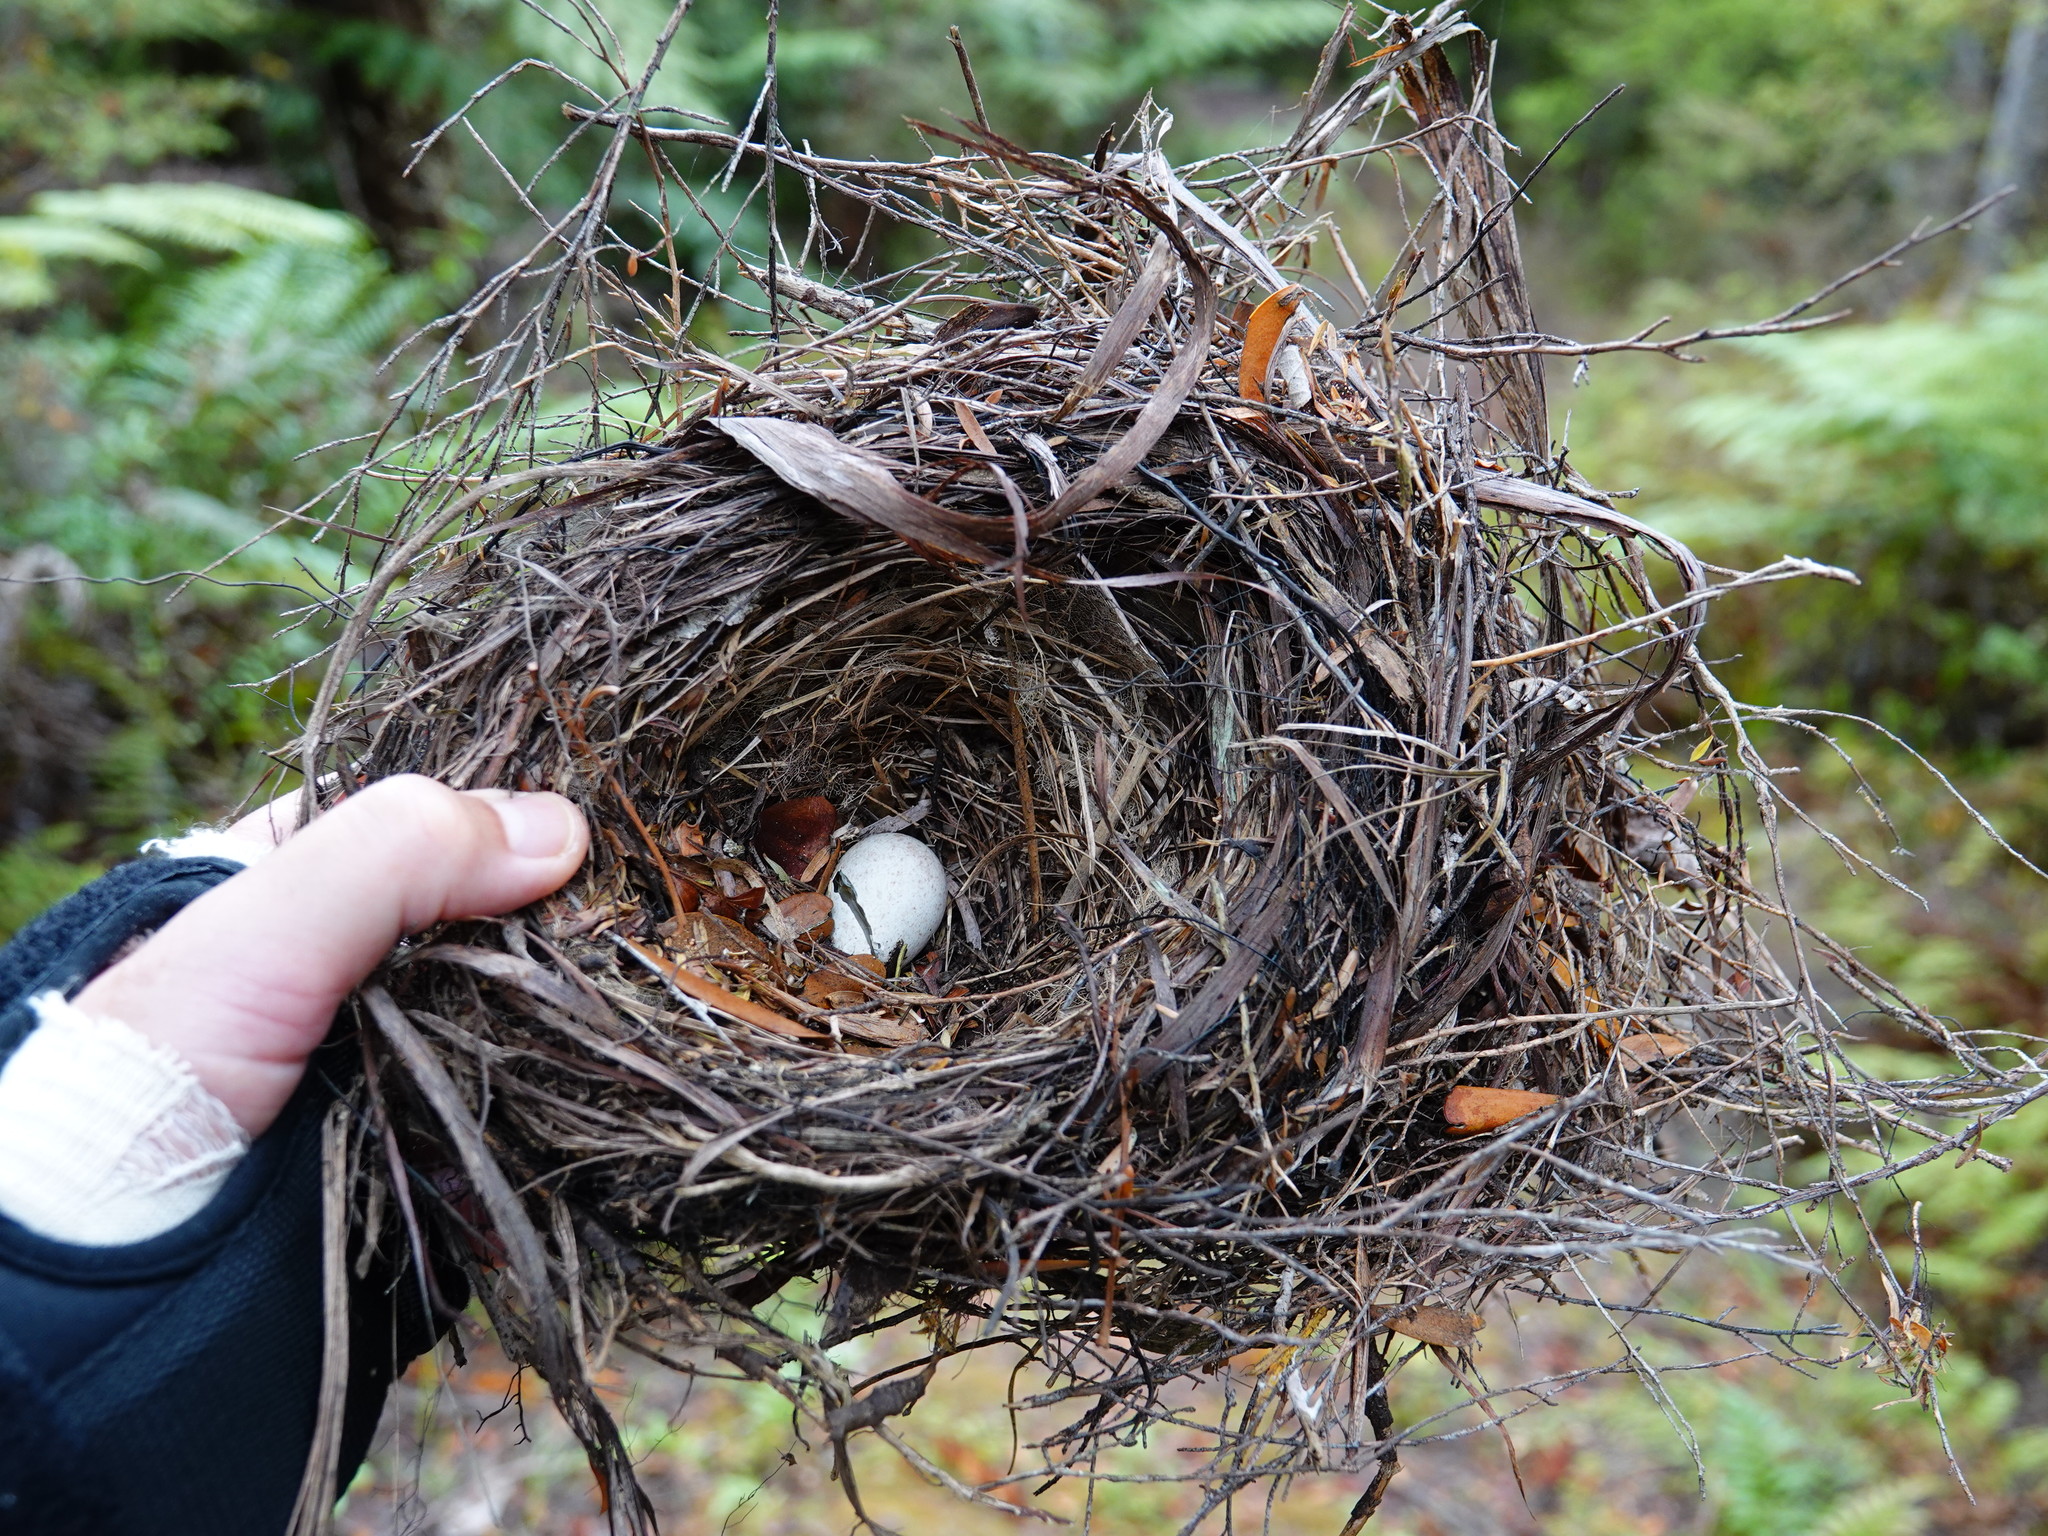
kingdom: Animalia
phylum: Chordata
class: Aves
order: Passeriformes
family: Turdidae
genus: Turdus
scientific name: Turdus merula
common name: Common blackbird
